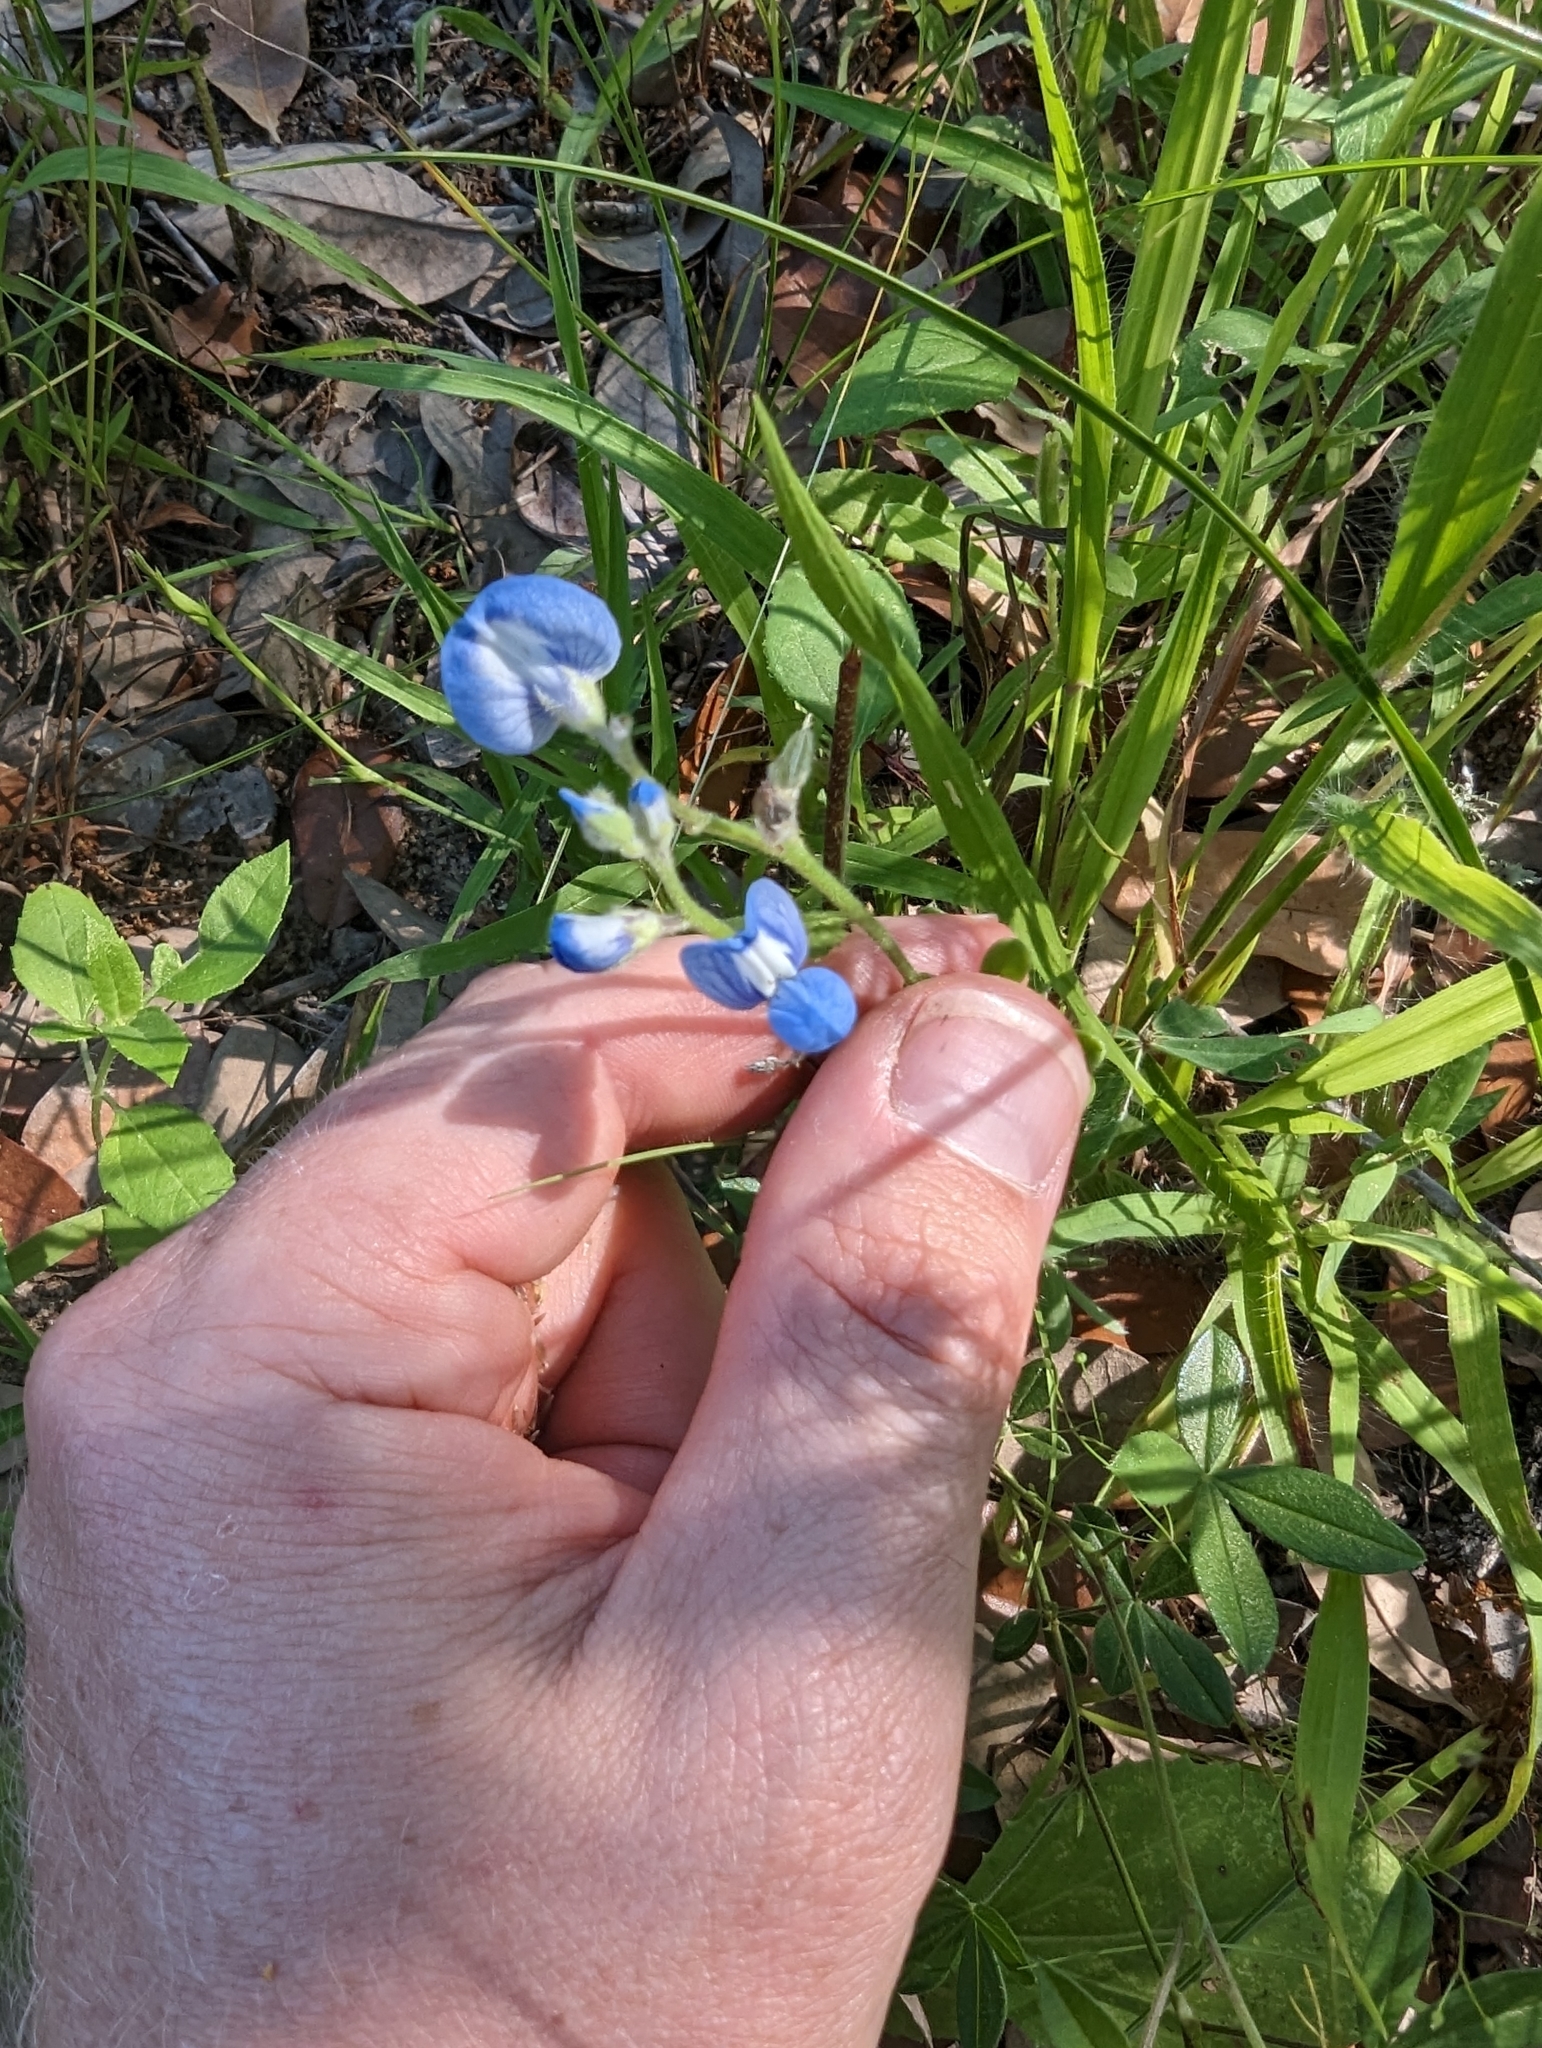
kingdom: Plantae
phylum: Tracheophyta
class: Magnoliopsida
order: Fabales
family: Fabaceae
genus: Lupinus
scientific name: Lupinus subcarnosus
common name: Texas bluebonnet
